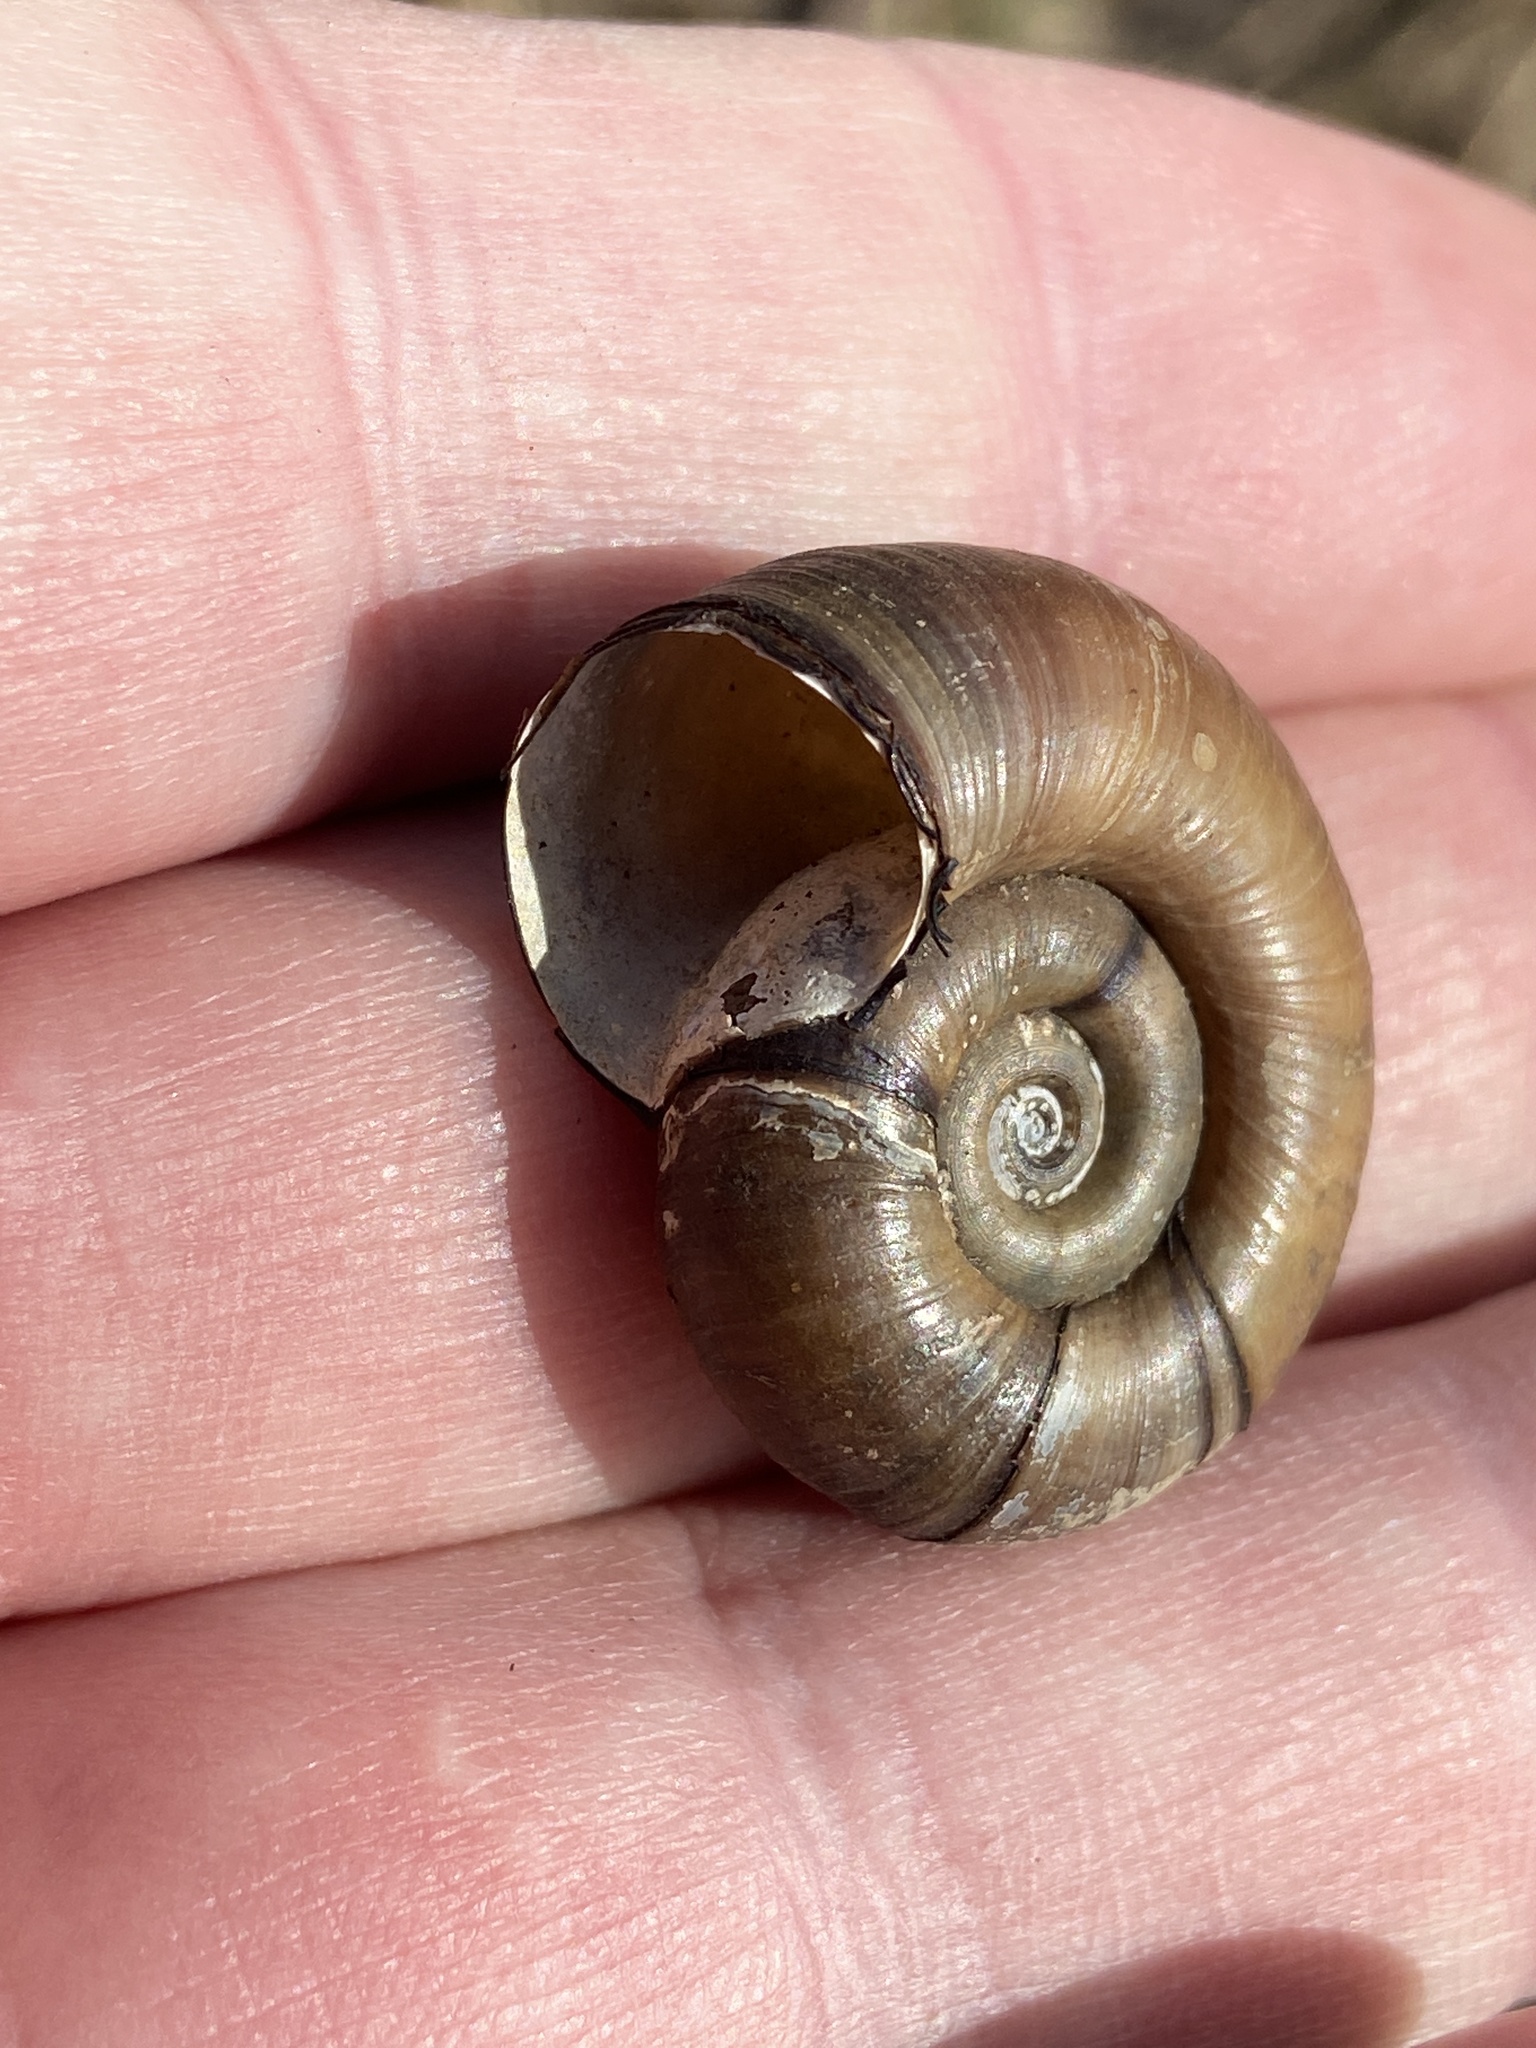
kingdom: Animalia
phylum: Mollusca
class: Gastropoda
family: Planorbidae
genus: Planorbarius
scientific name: Planorbarius corneus
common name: Great ramshorn
